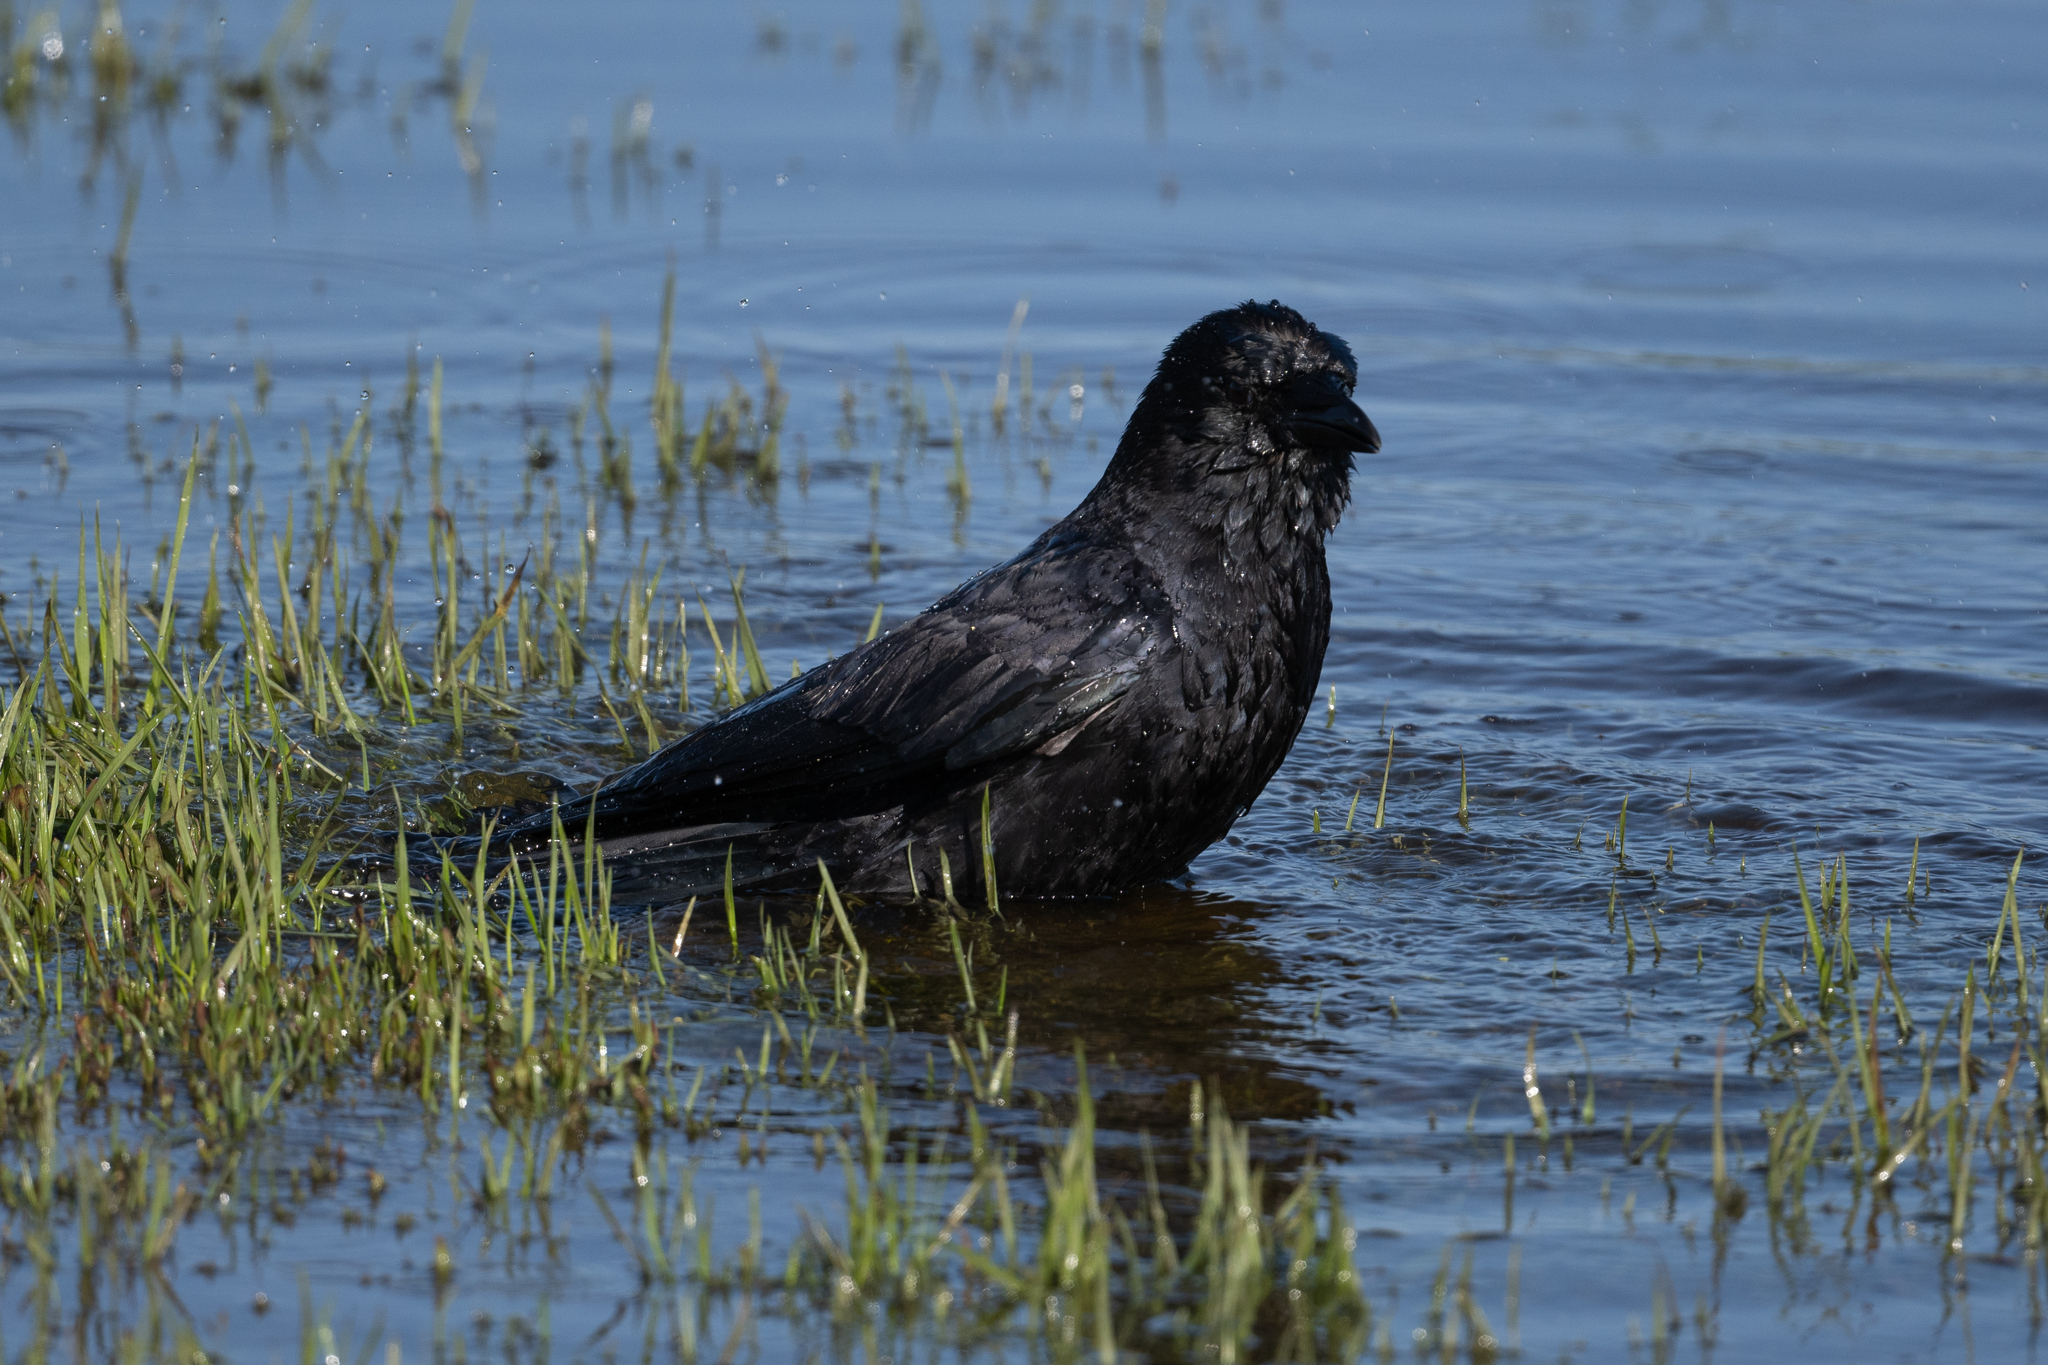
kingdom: Animalia
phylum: Chordata
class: Aves
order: Passeriformes
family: Corvidae
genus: Corvus
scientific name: Corvus brachyrhynchos
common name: American crow
